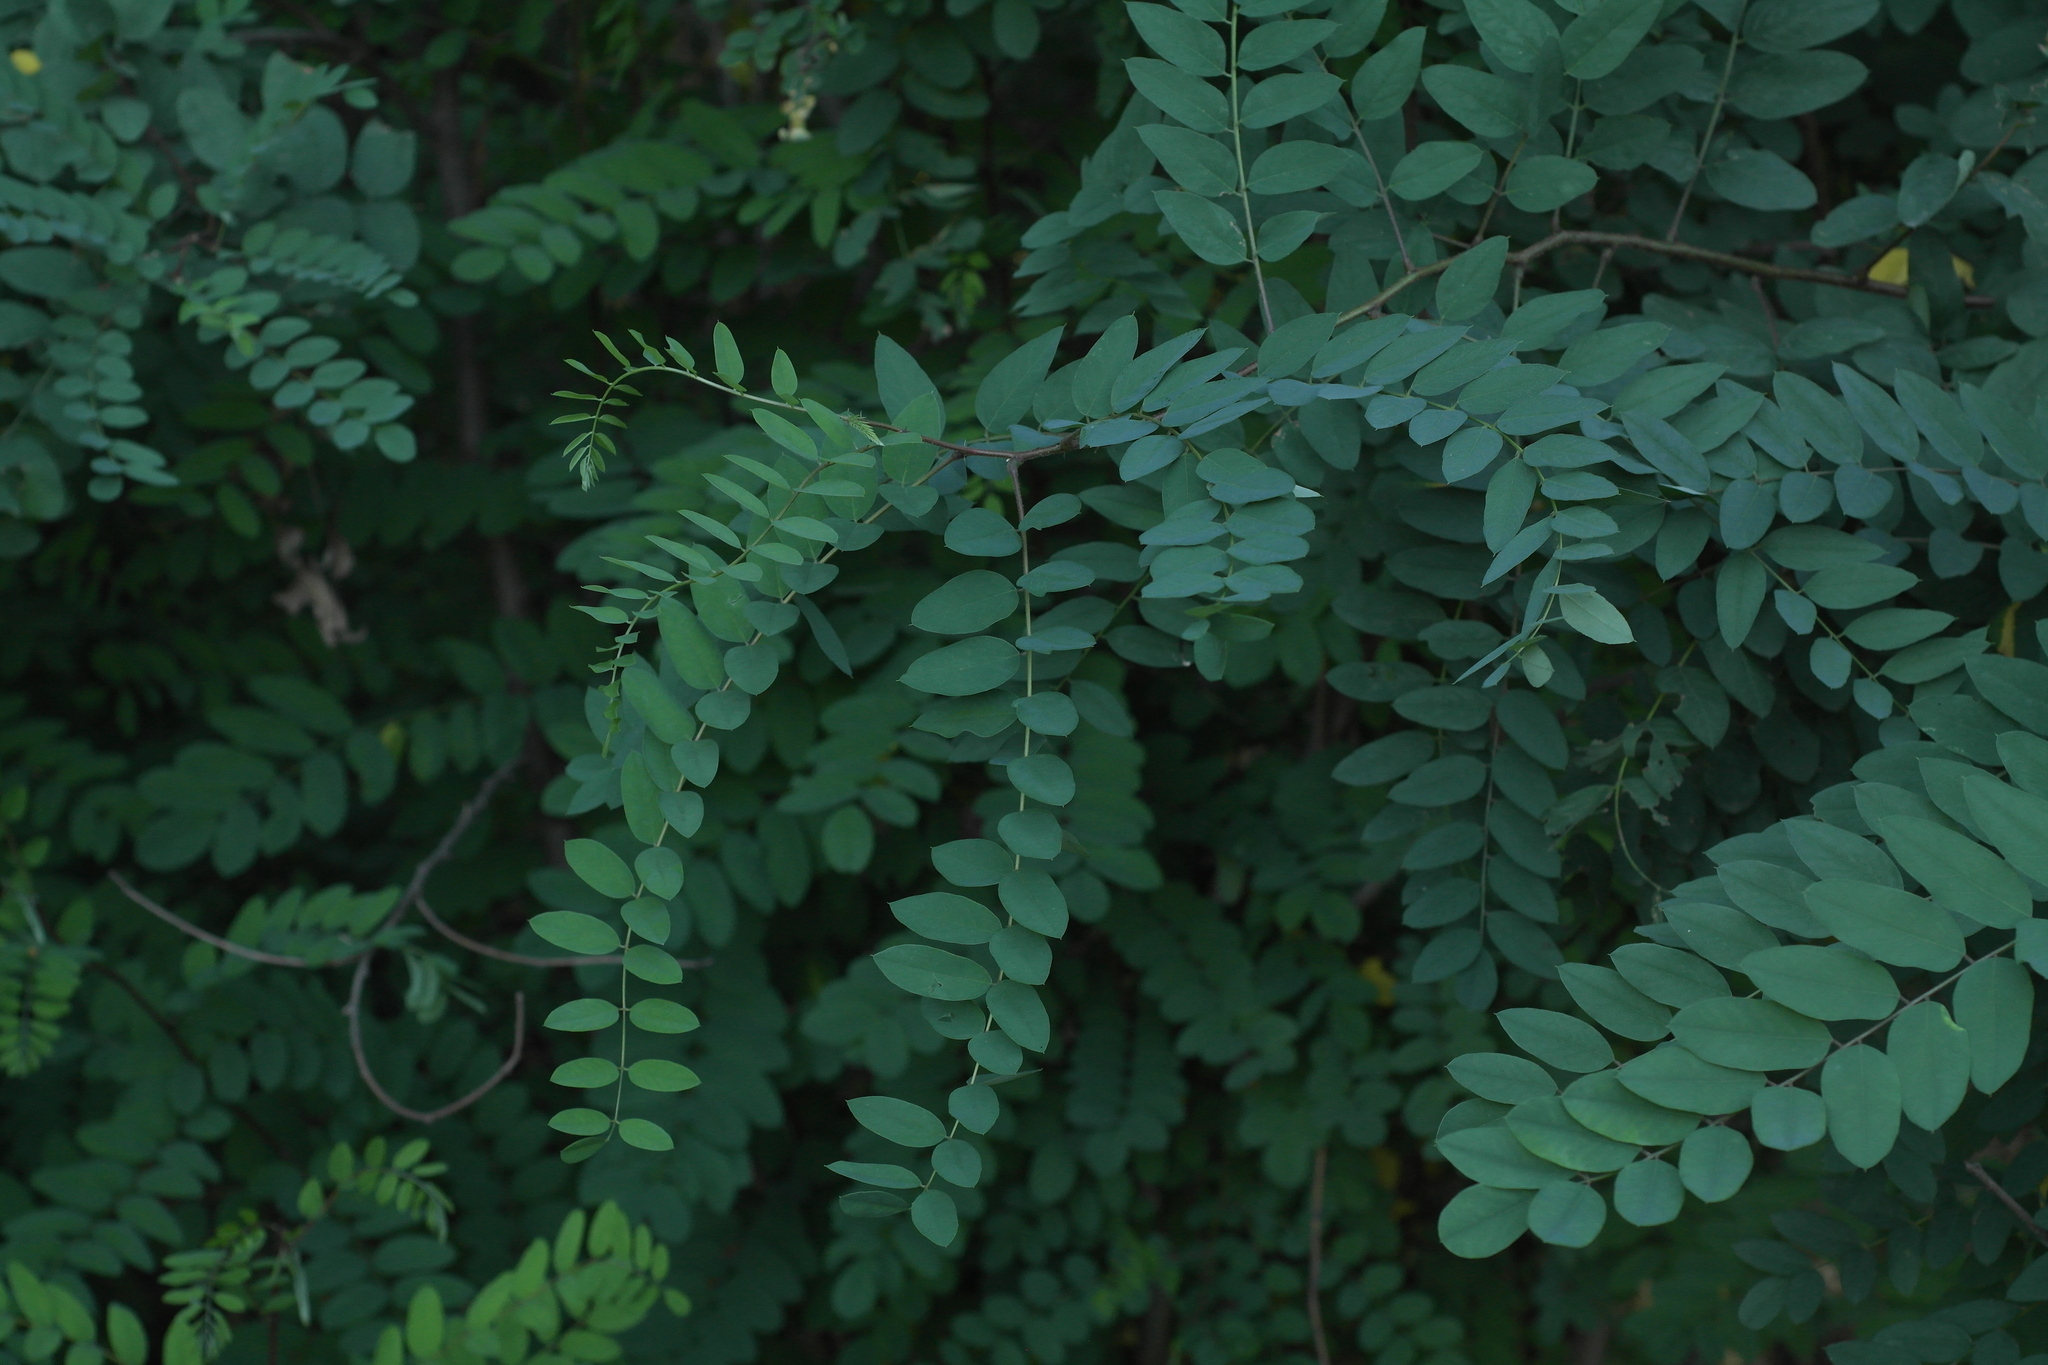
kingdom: Plantae
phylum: Tracheophyta
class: Magnoliopsida
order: Fabales
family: Fabaceae
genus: Robinia
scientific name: Robinia viscosa
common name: Clammy locust
